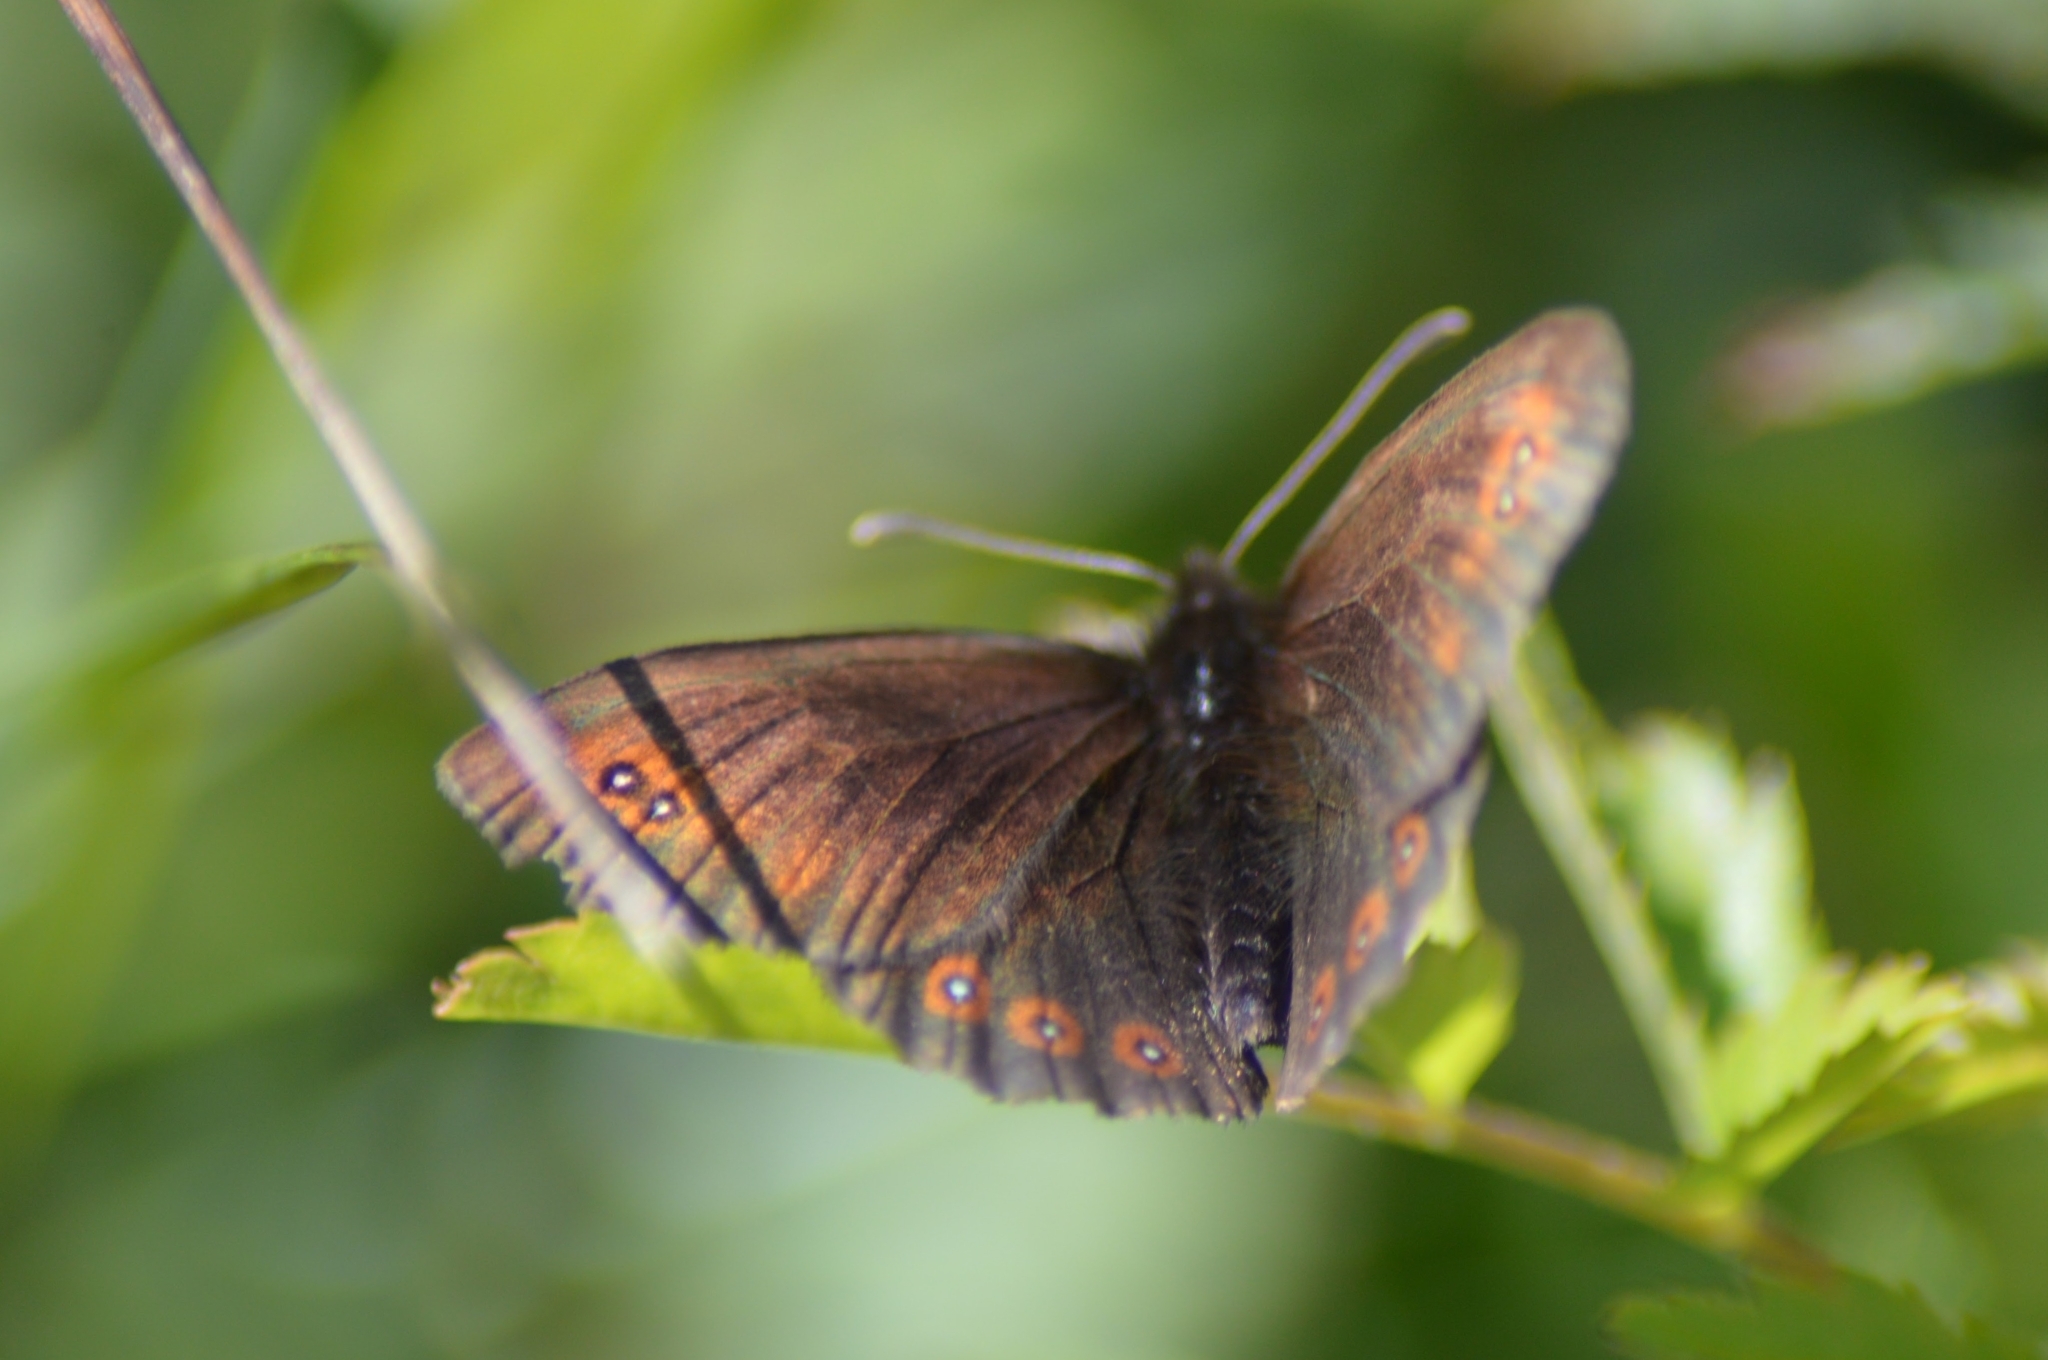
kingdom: Animalia
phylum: Arthropoda
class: Insecta
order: Lepidoptera
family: Nymphalidae
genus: Erebia
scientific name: Erebia oeme
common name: Bright-eyed ringlet
